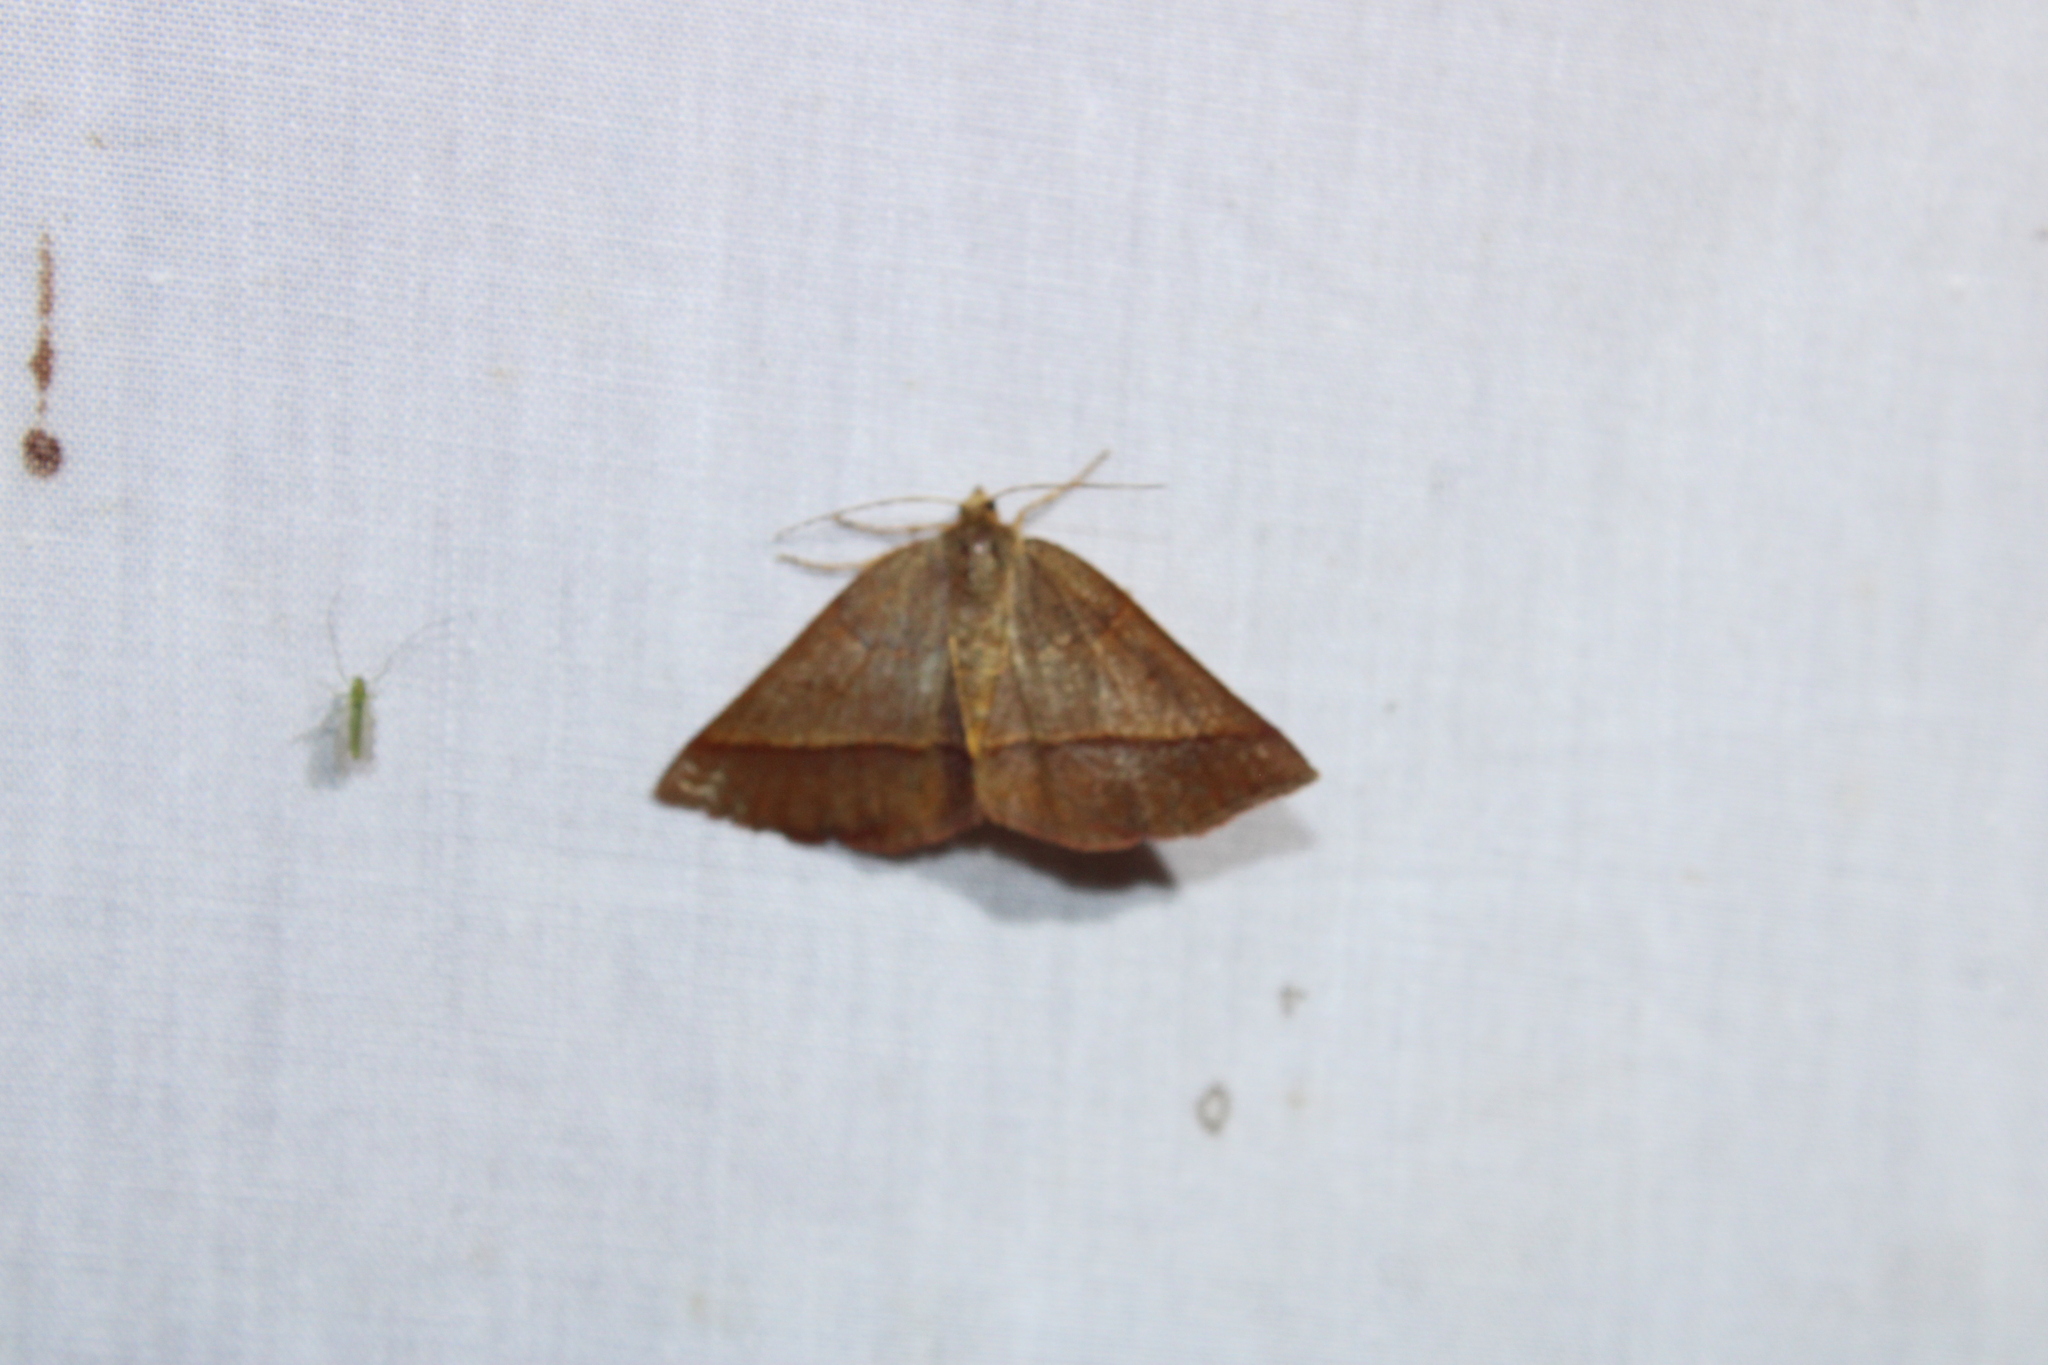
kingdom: Animalia
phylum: Arthropoda
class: Insecta
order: Lepidoptera
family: Geometridae
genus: Metarranthis
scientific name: Metarranthis obfirmaria
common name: Yellow-washed metarranthis
